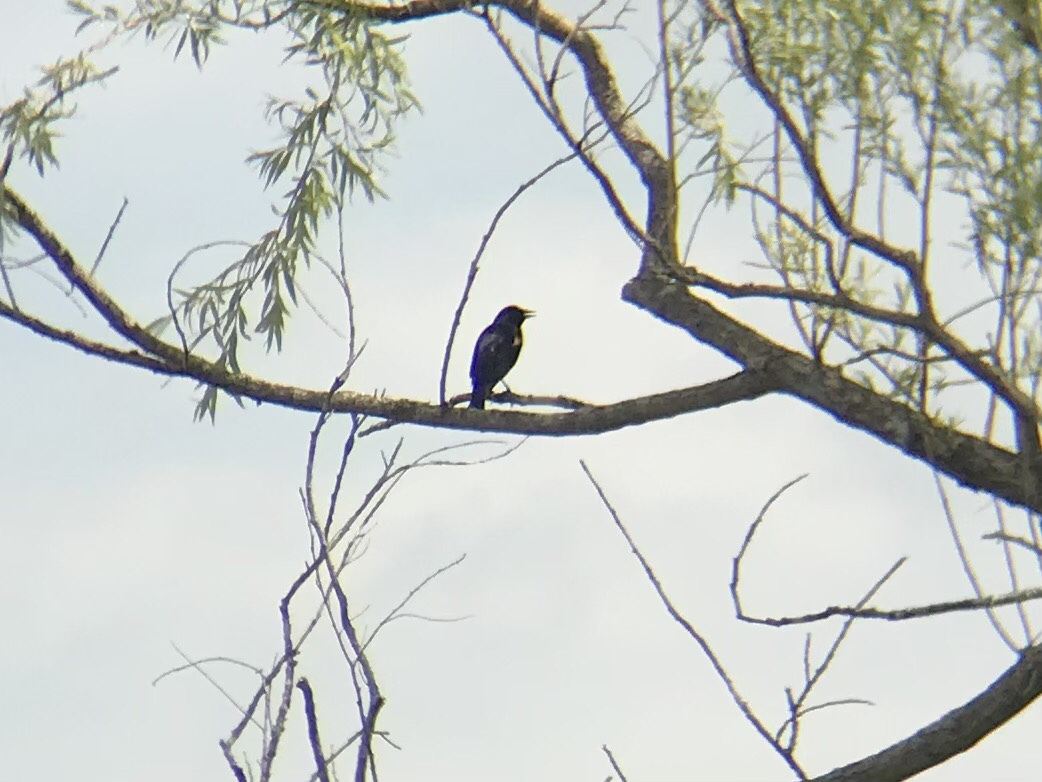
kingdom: Animalia
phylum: Chordata
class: Aves
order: Passeriformes
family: Icteridae
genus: Agelaius
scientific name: Agelaius phoeniceus
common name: Red-winged blackbird
